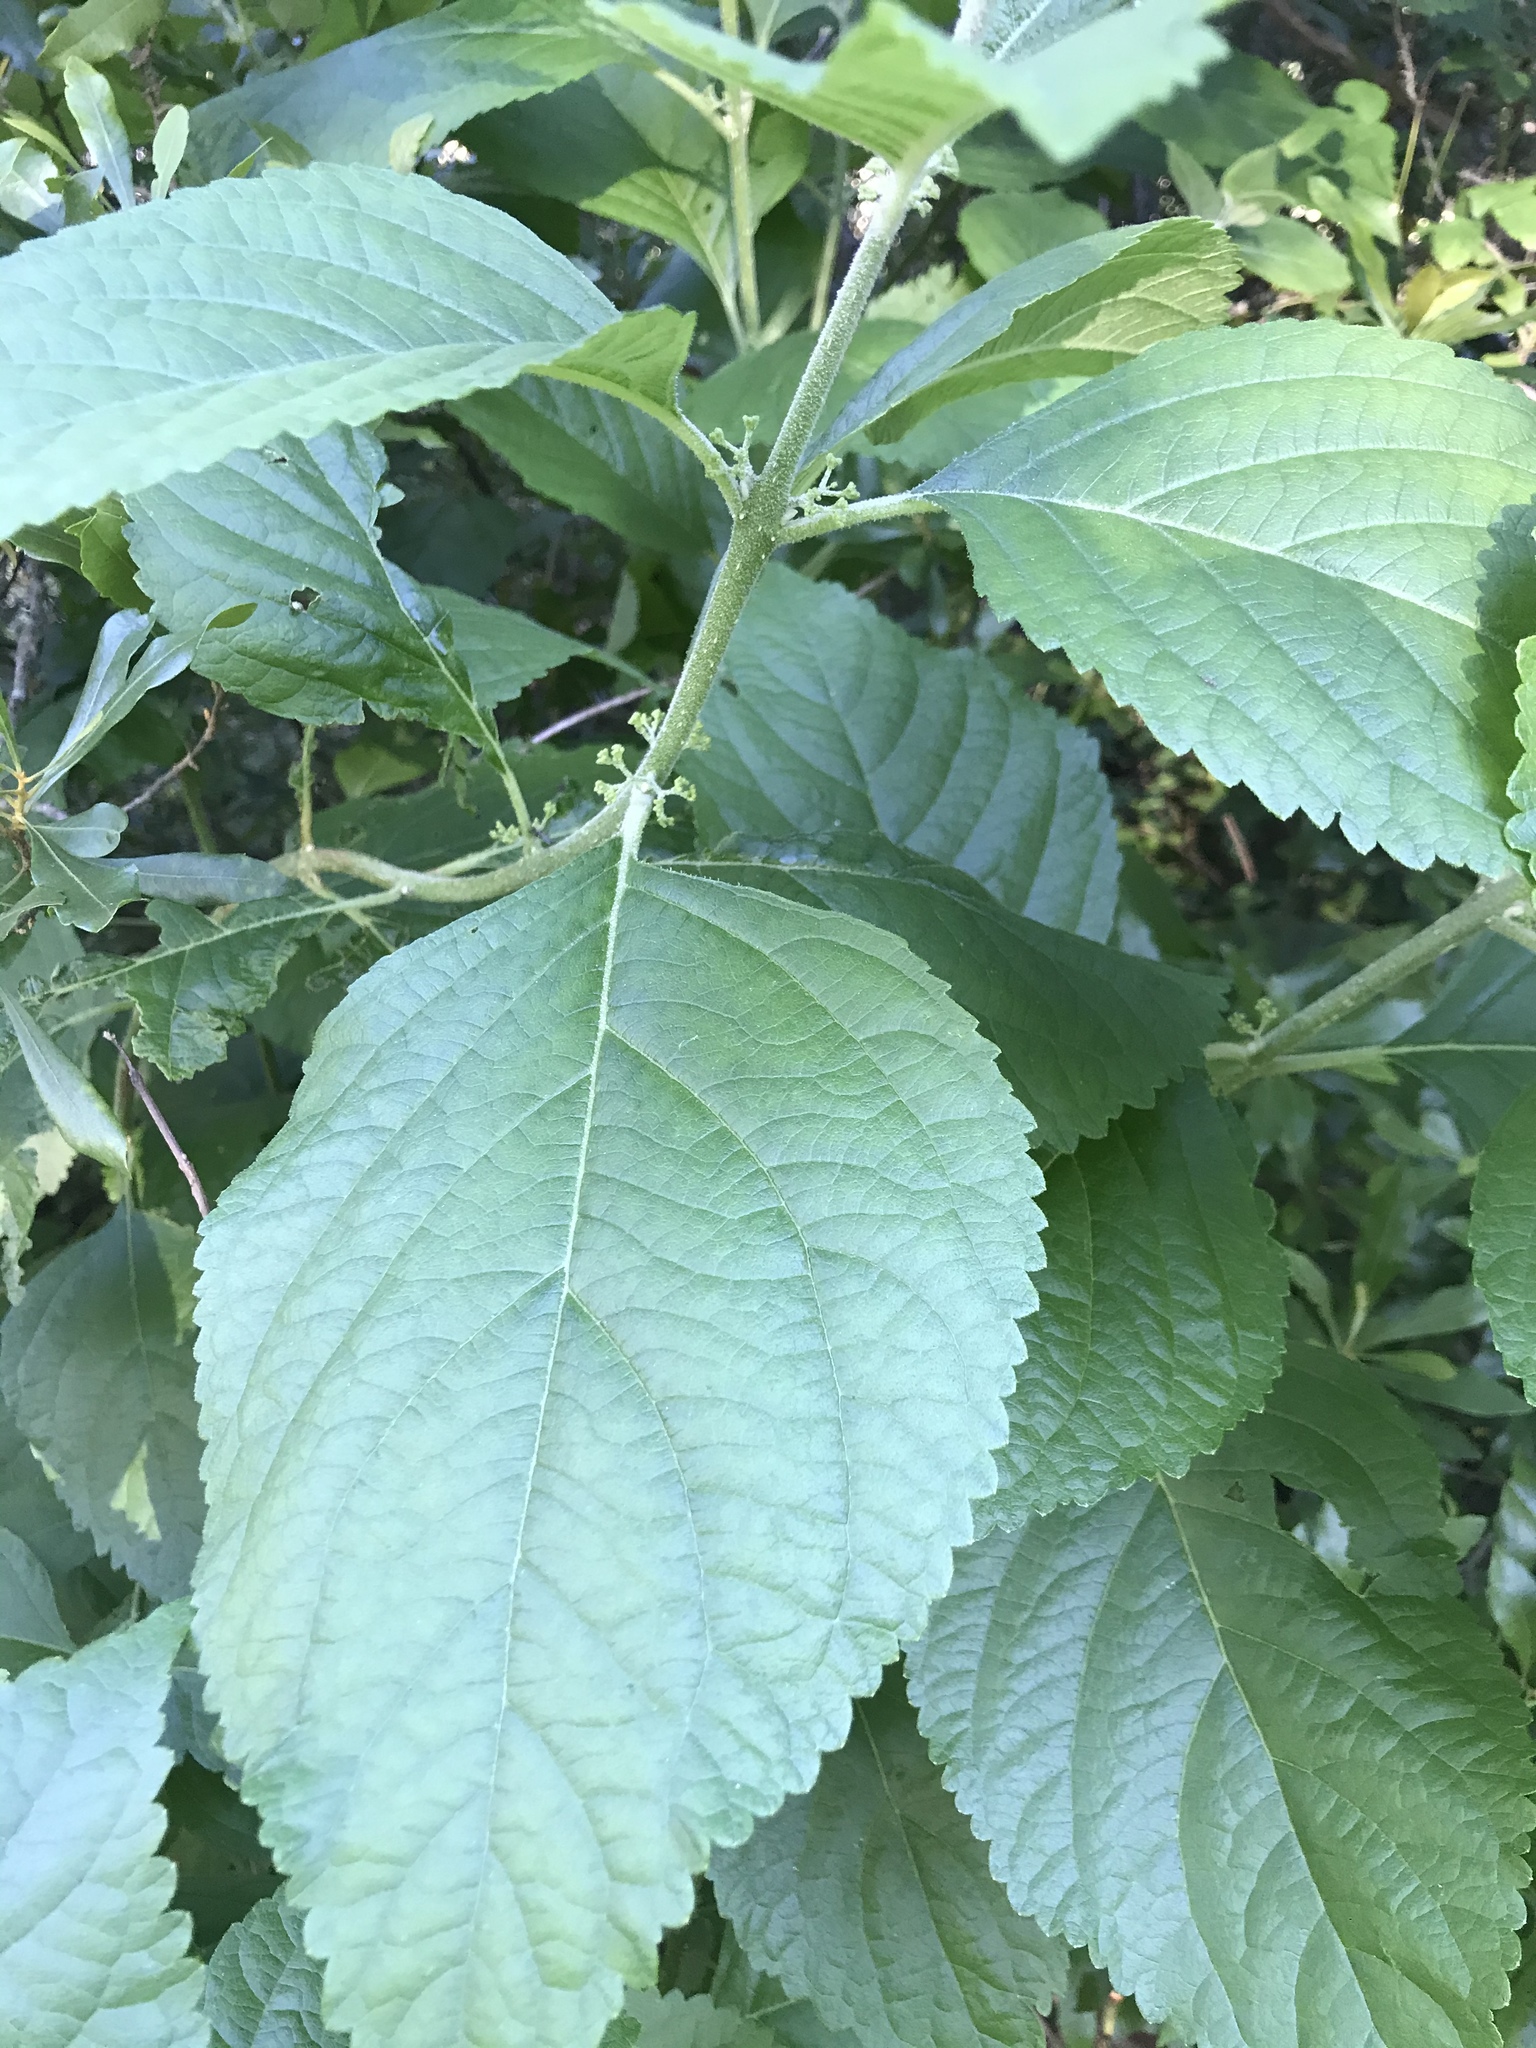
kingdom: Plantae
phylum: Tracheophyta
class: Magnoliopsida
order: Lamiales
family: Lamiaceae
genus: Callicarpa
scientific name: Callicarpa americana
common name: American beautyberry
